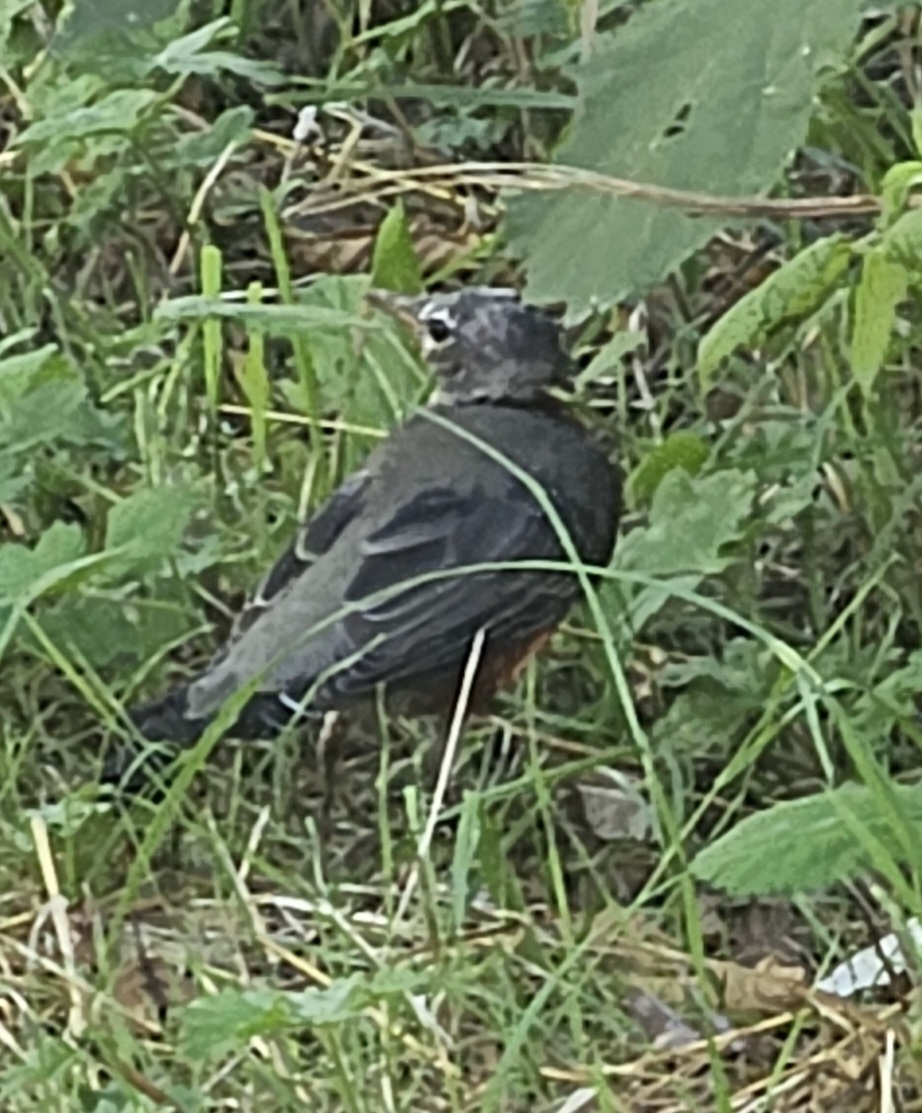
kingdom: Animalia
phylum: Chordata
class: Aves
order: Passeriformes
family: Turdidae
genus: Turdus
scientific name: Turdus migratorius
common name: American robin
